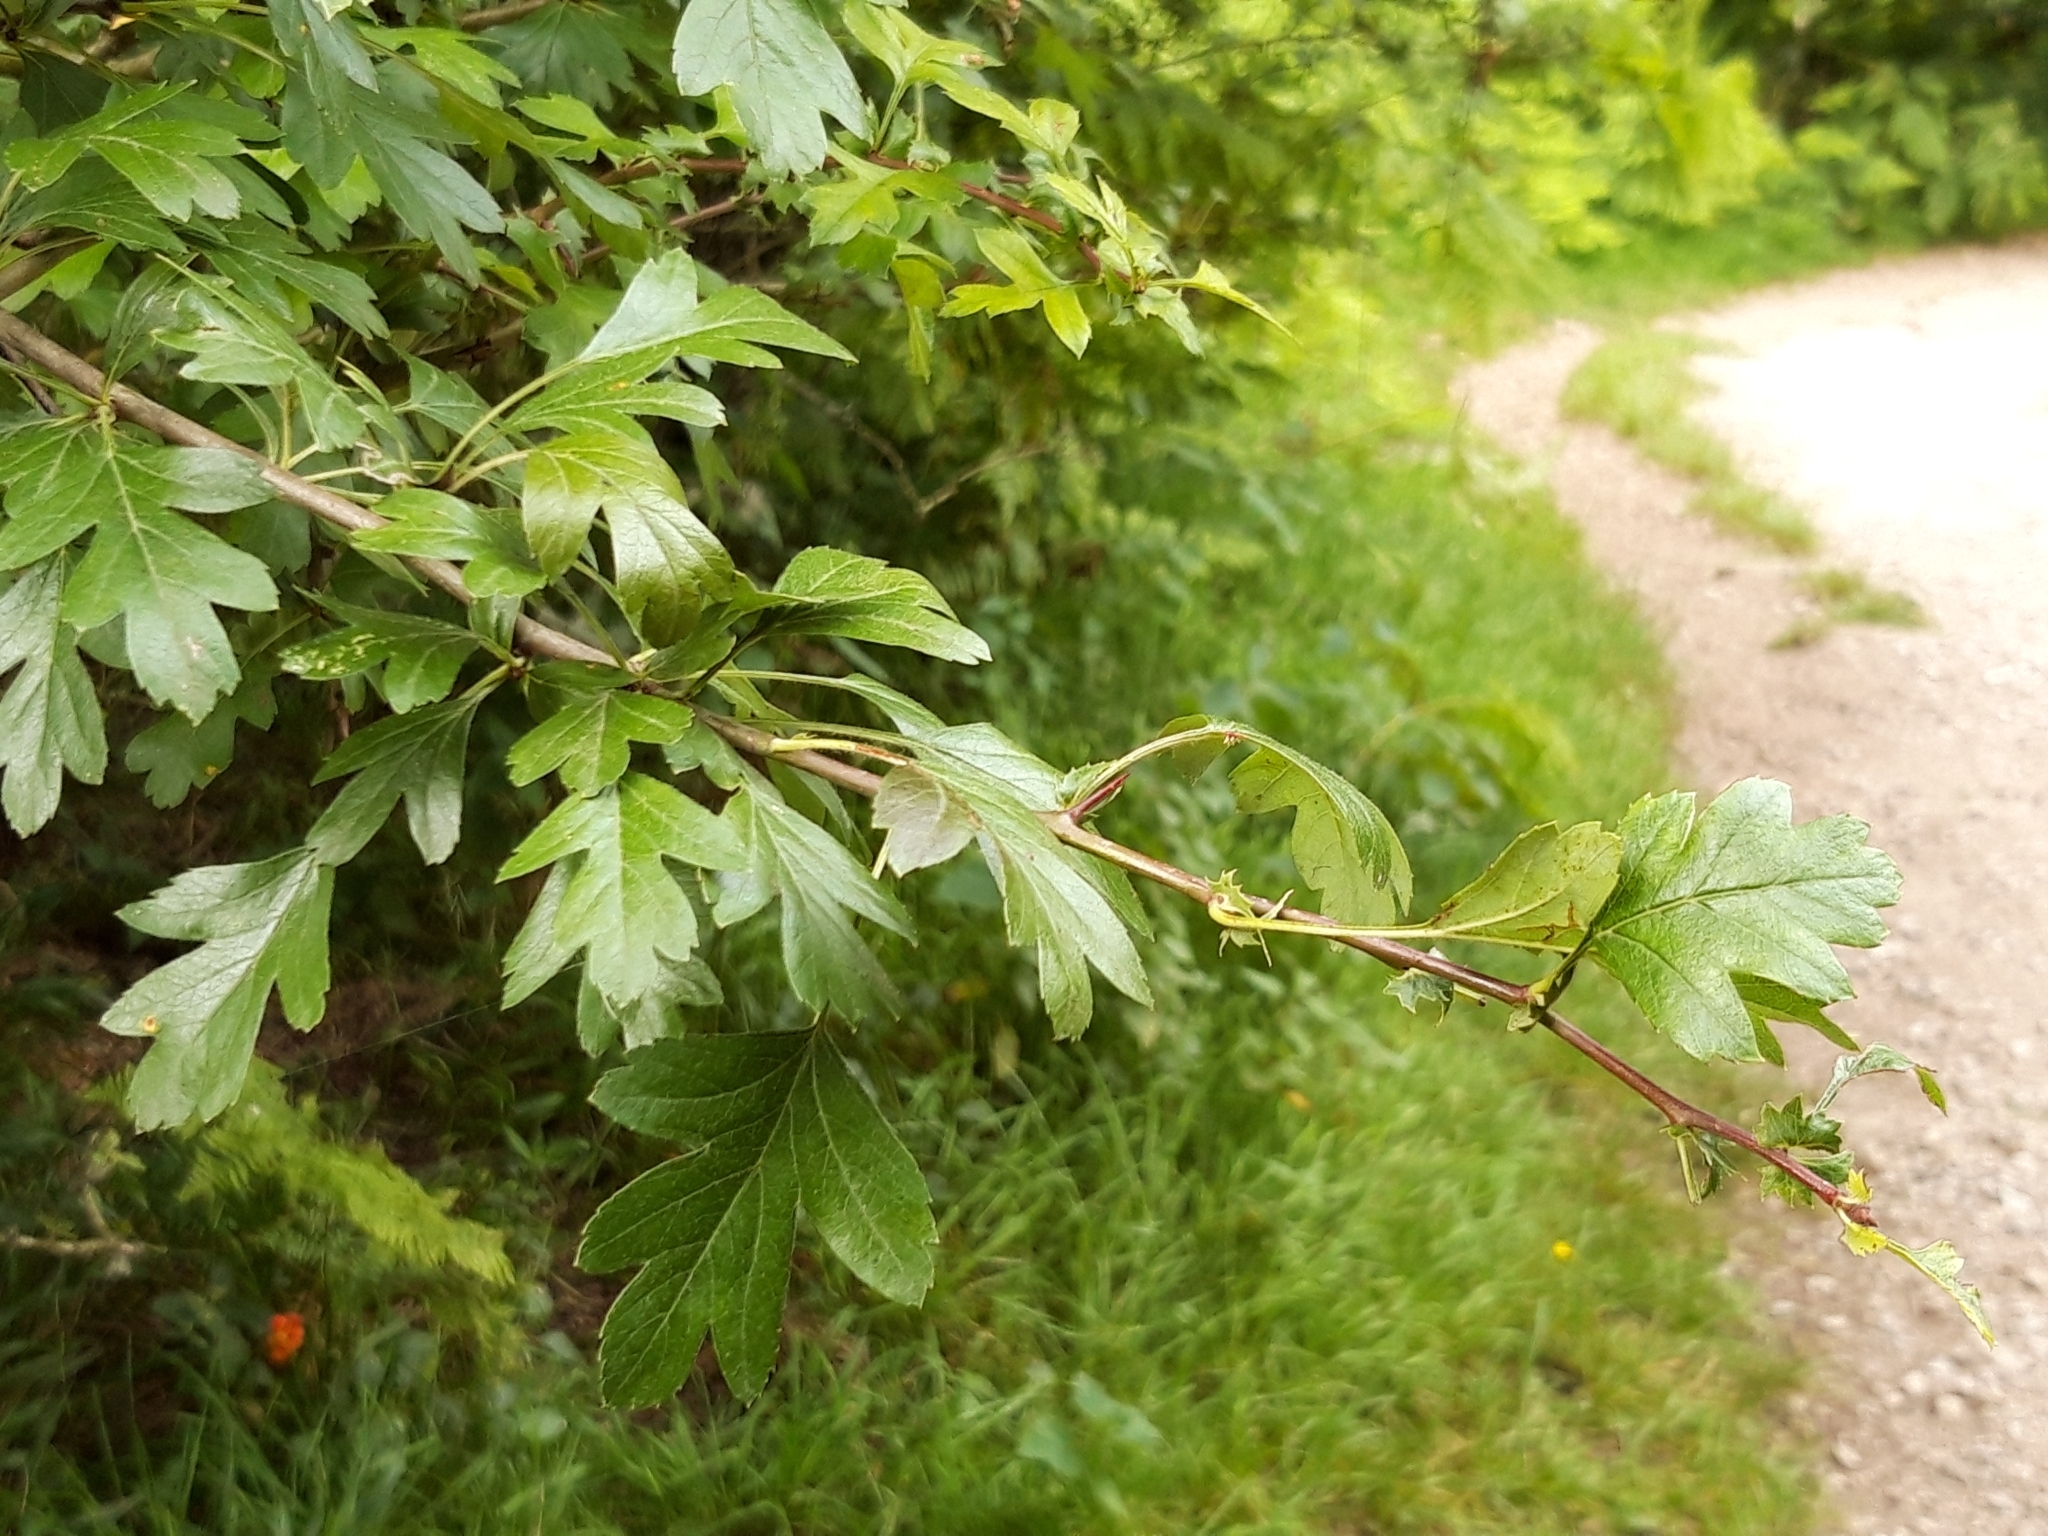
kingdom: Plantae
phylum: Tracheophyta
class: Magnoliopsida
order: Rosales
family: Rosaceae
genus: Crataegus
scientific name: Crataegus monogyna
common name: Hawthorn
